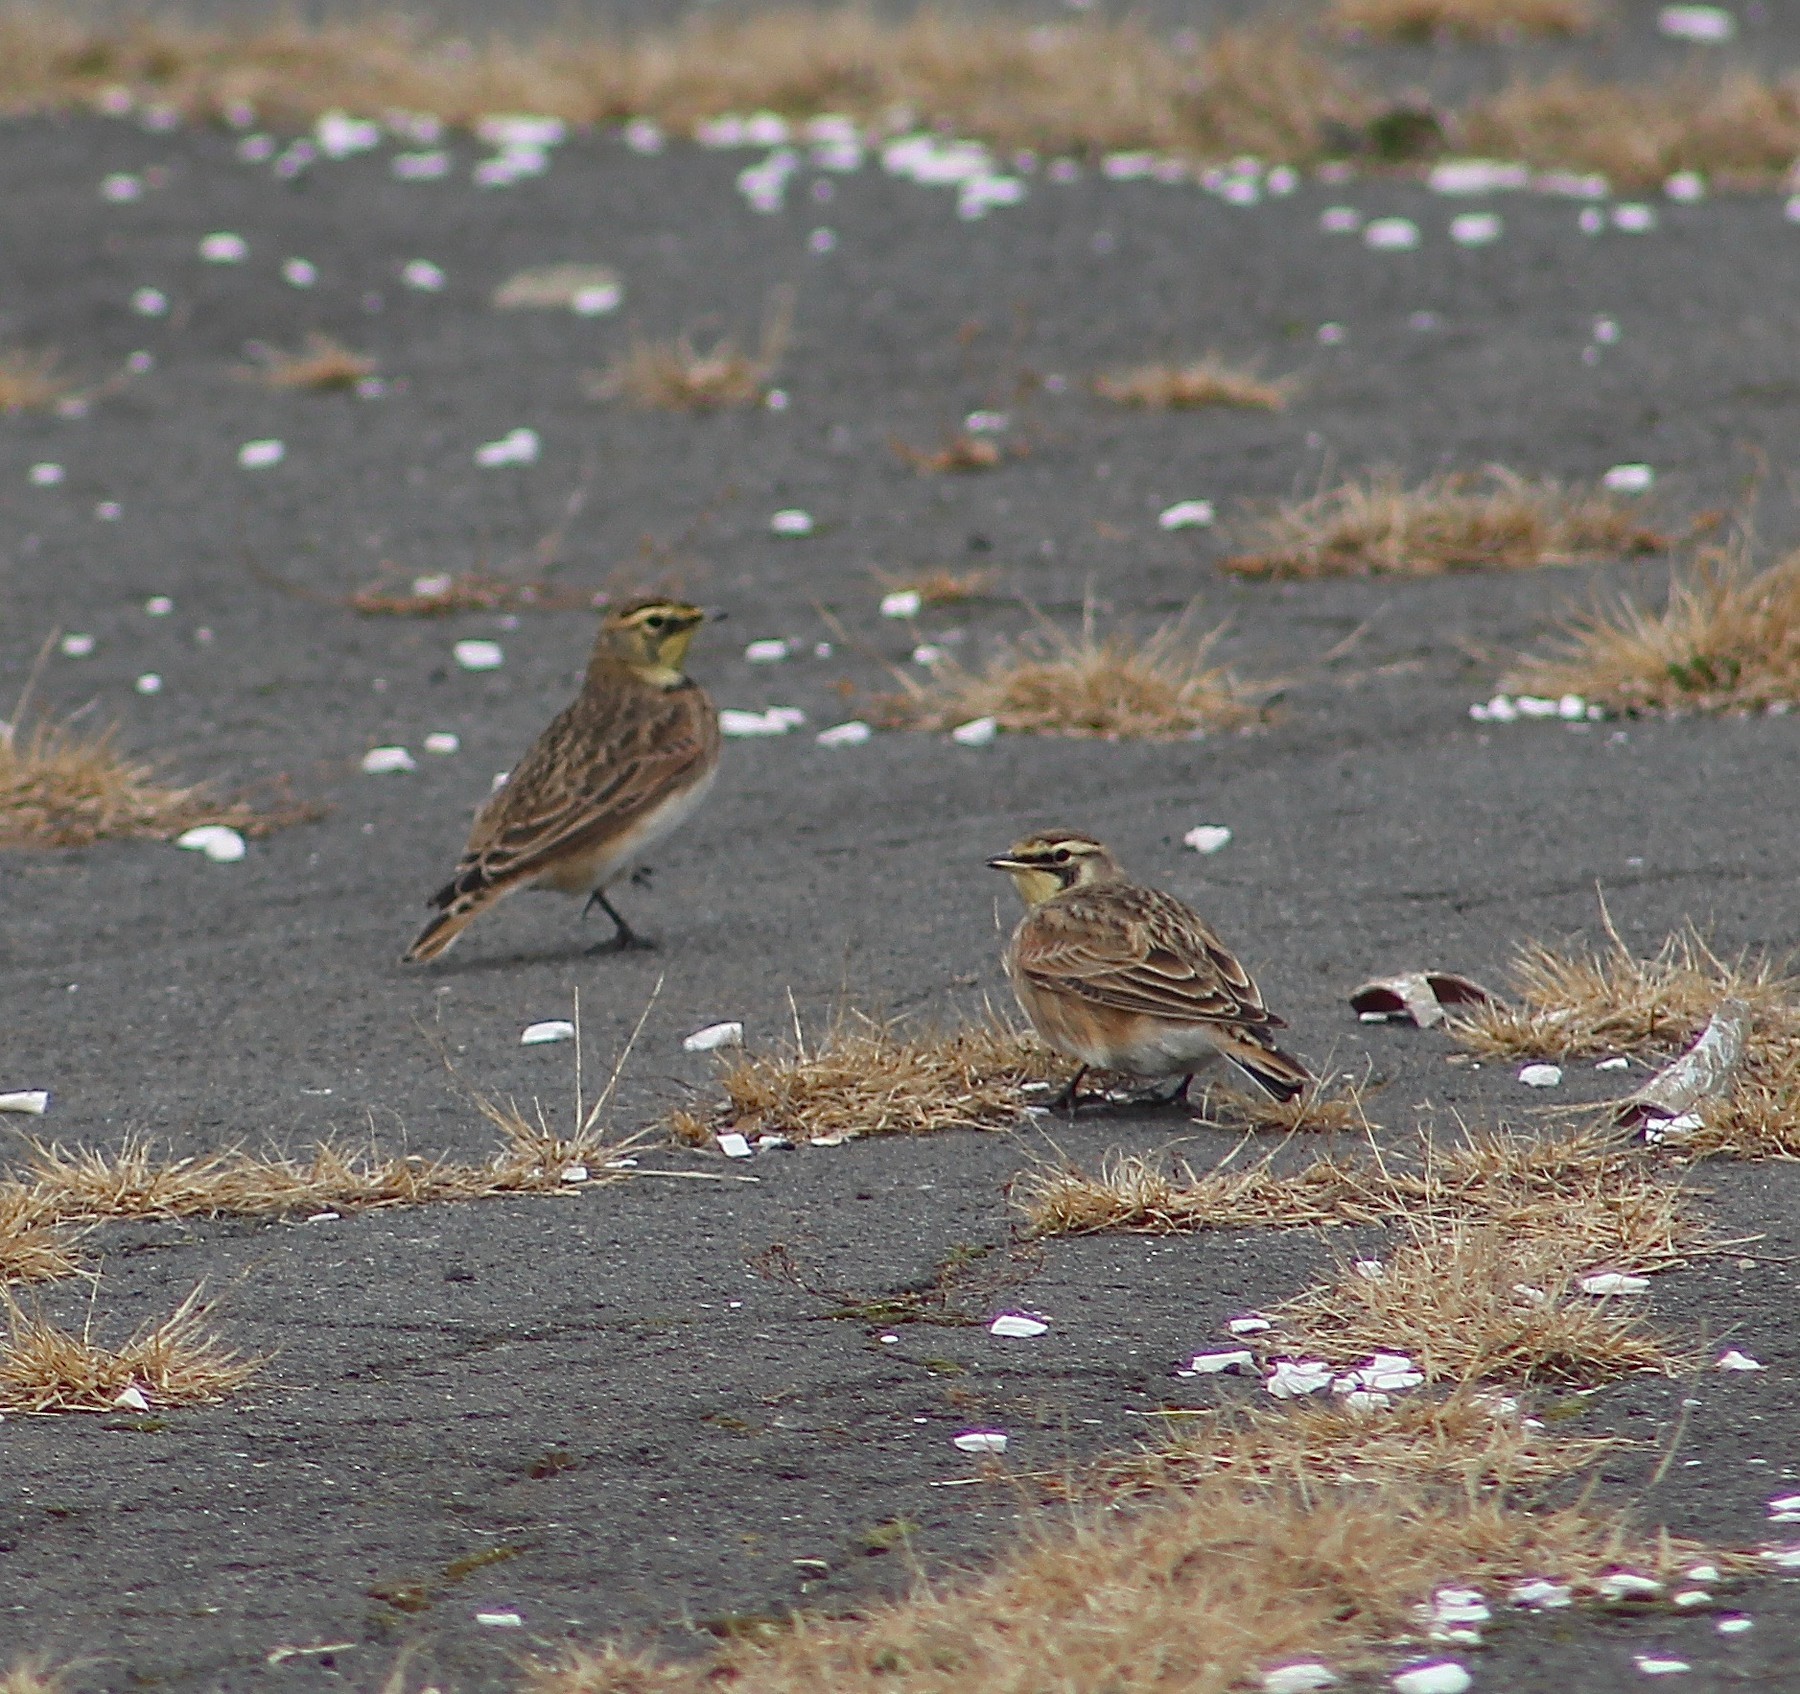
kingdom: Animalia
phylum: Chordata
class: Aves
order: Passeriformes
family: Alaudidae
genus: Eremophila
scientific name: Eremophila alpestris
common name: Horned lark
